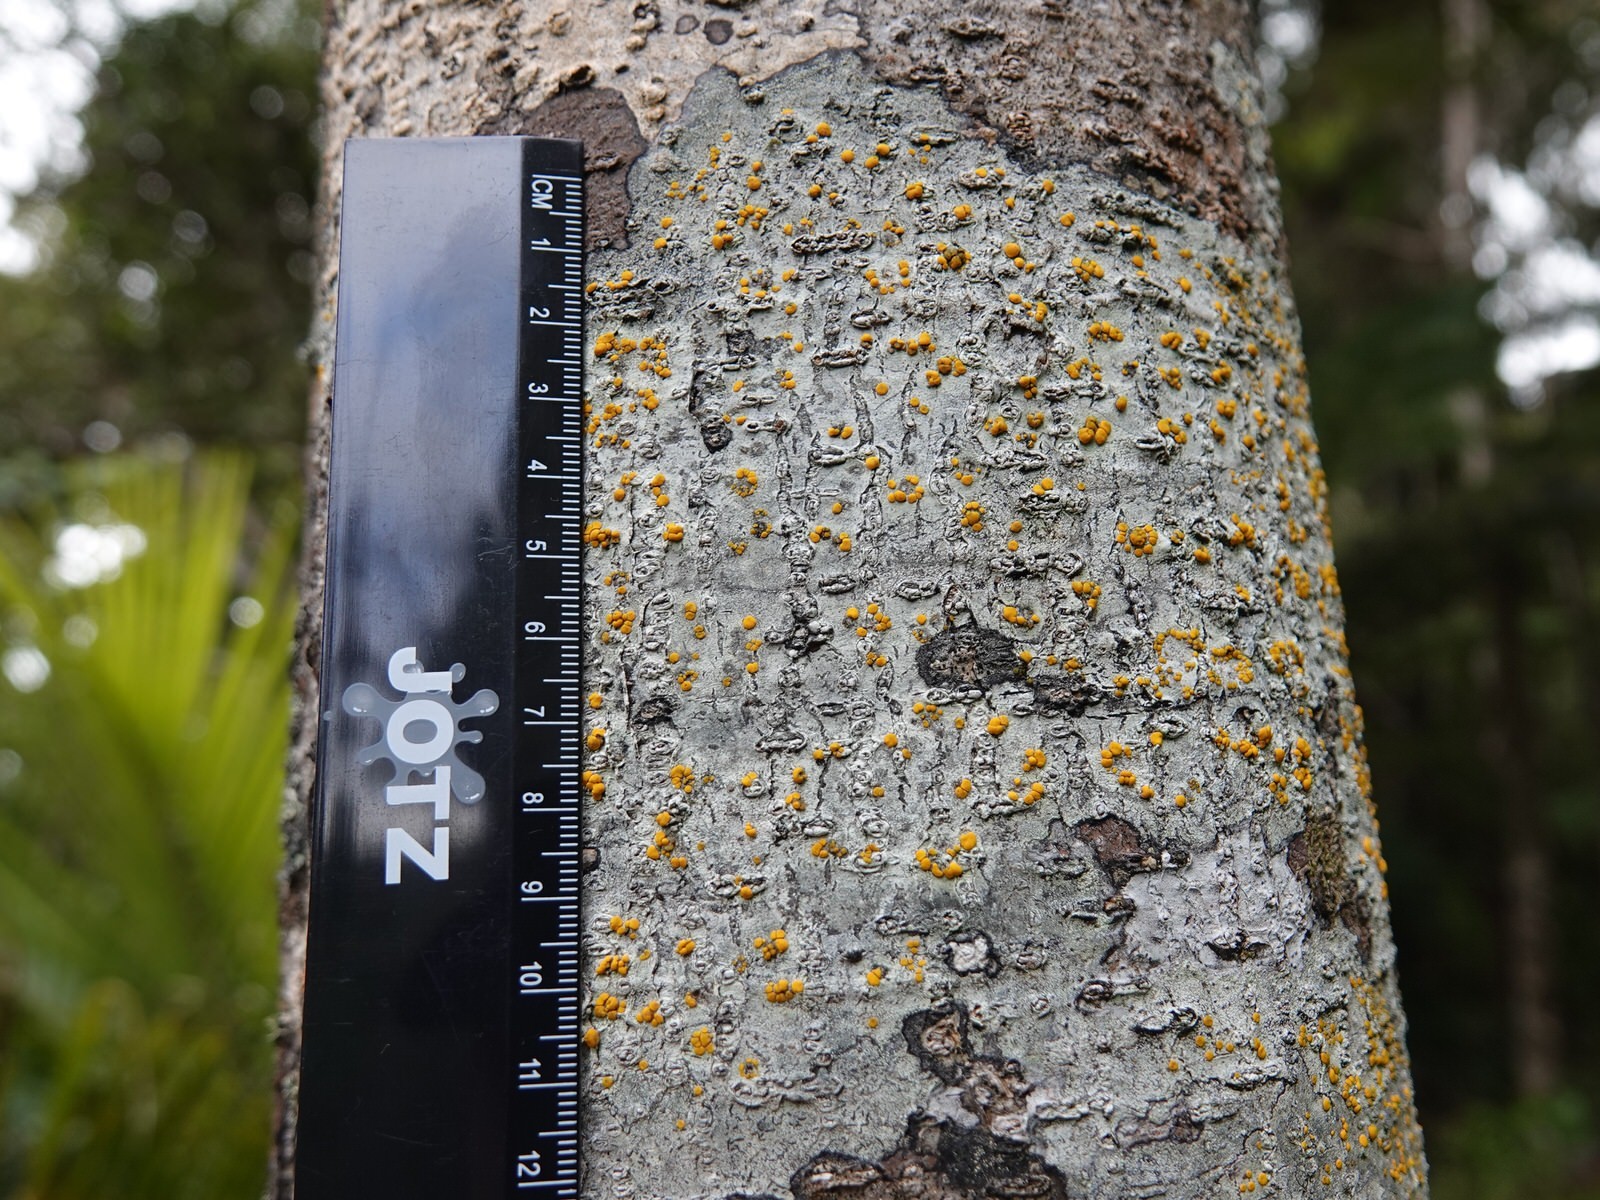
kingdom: Fungi
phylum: Ascomycota
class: Lecanoromycetes
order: Lecanorales
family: Ramalinaceae
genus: Stirtoniella
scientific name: Stirtoniella kelica
